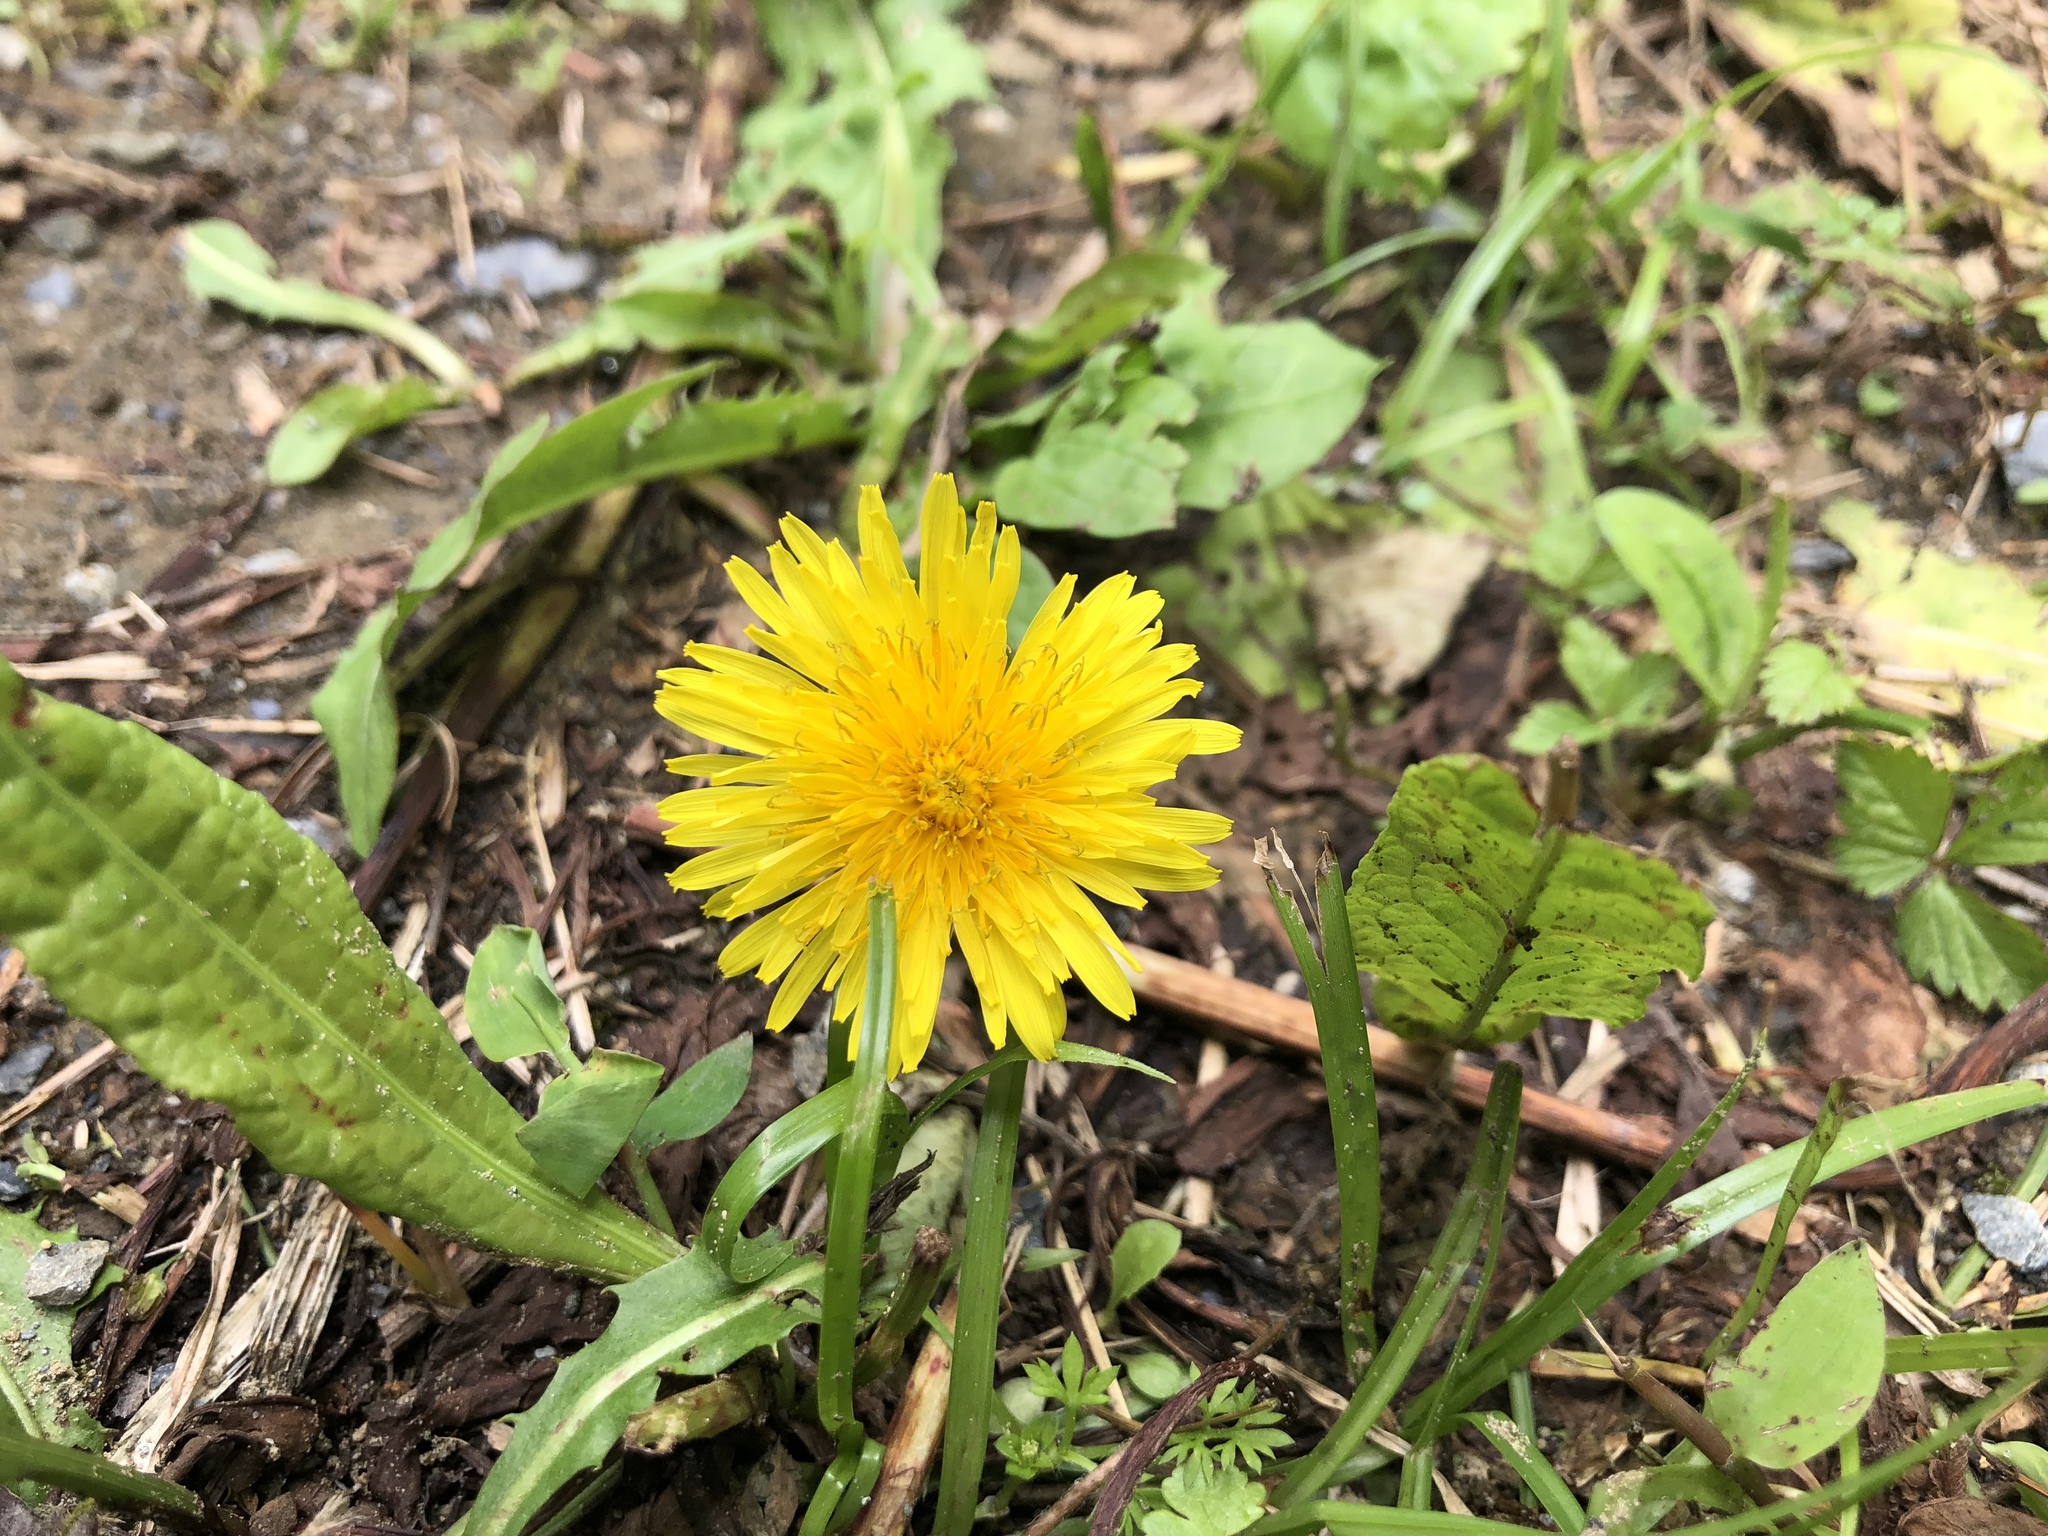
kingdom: Plantae
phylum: Tracheophyta
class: Magnoliopsida
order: Asterales
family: Asteraceae
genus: Taraxacum
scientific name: Taraxacum officinale
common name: Common dandelion
